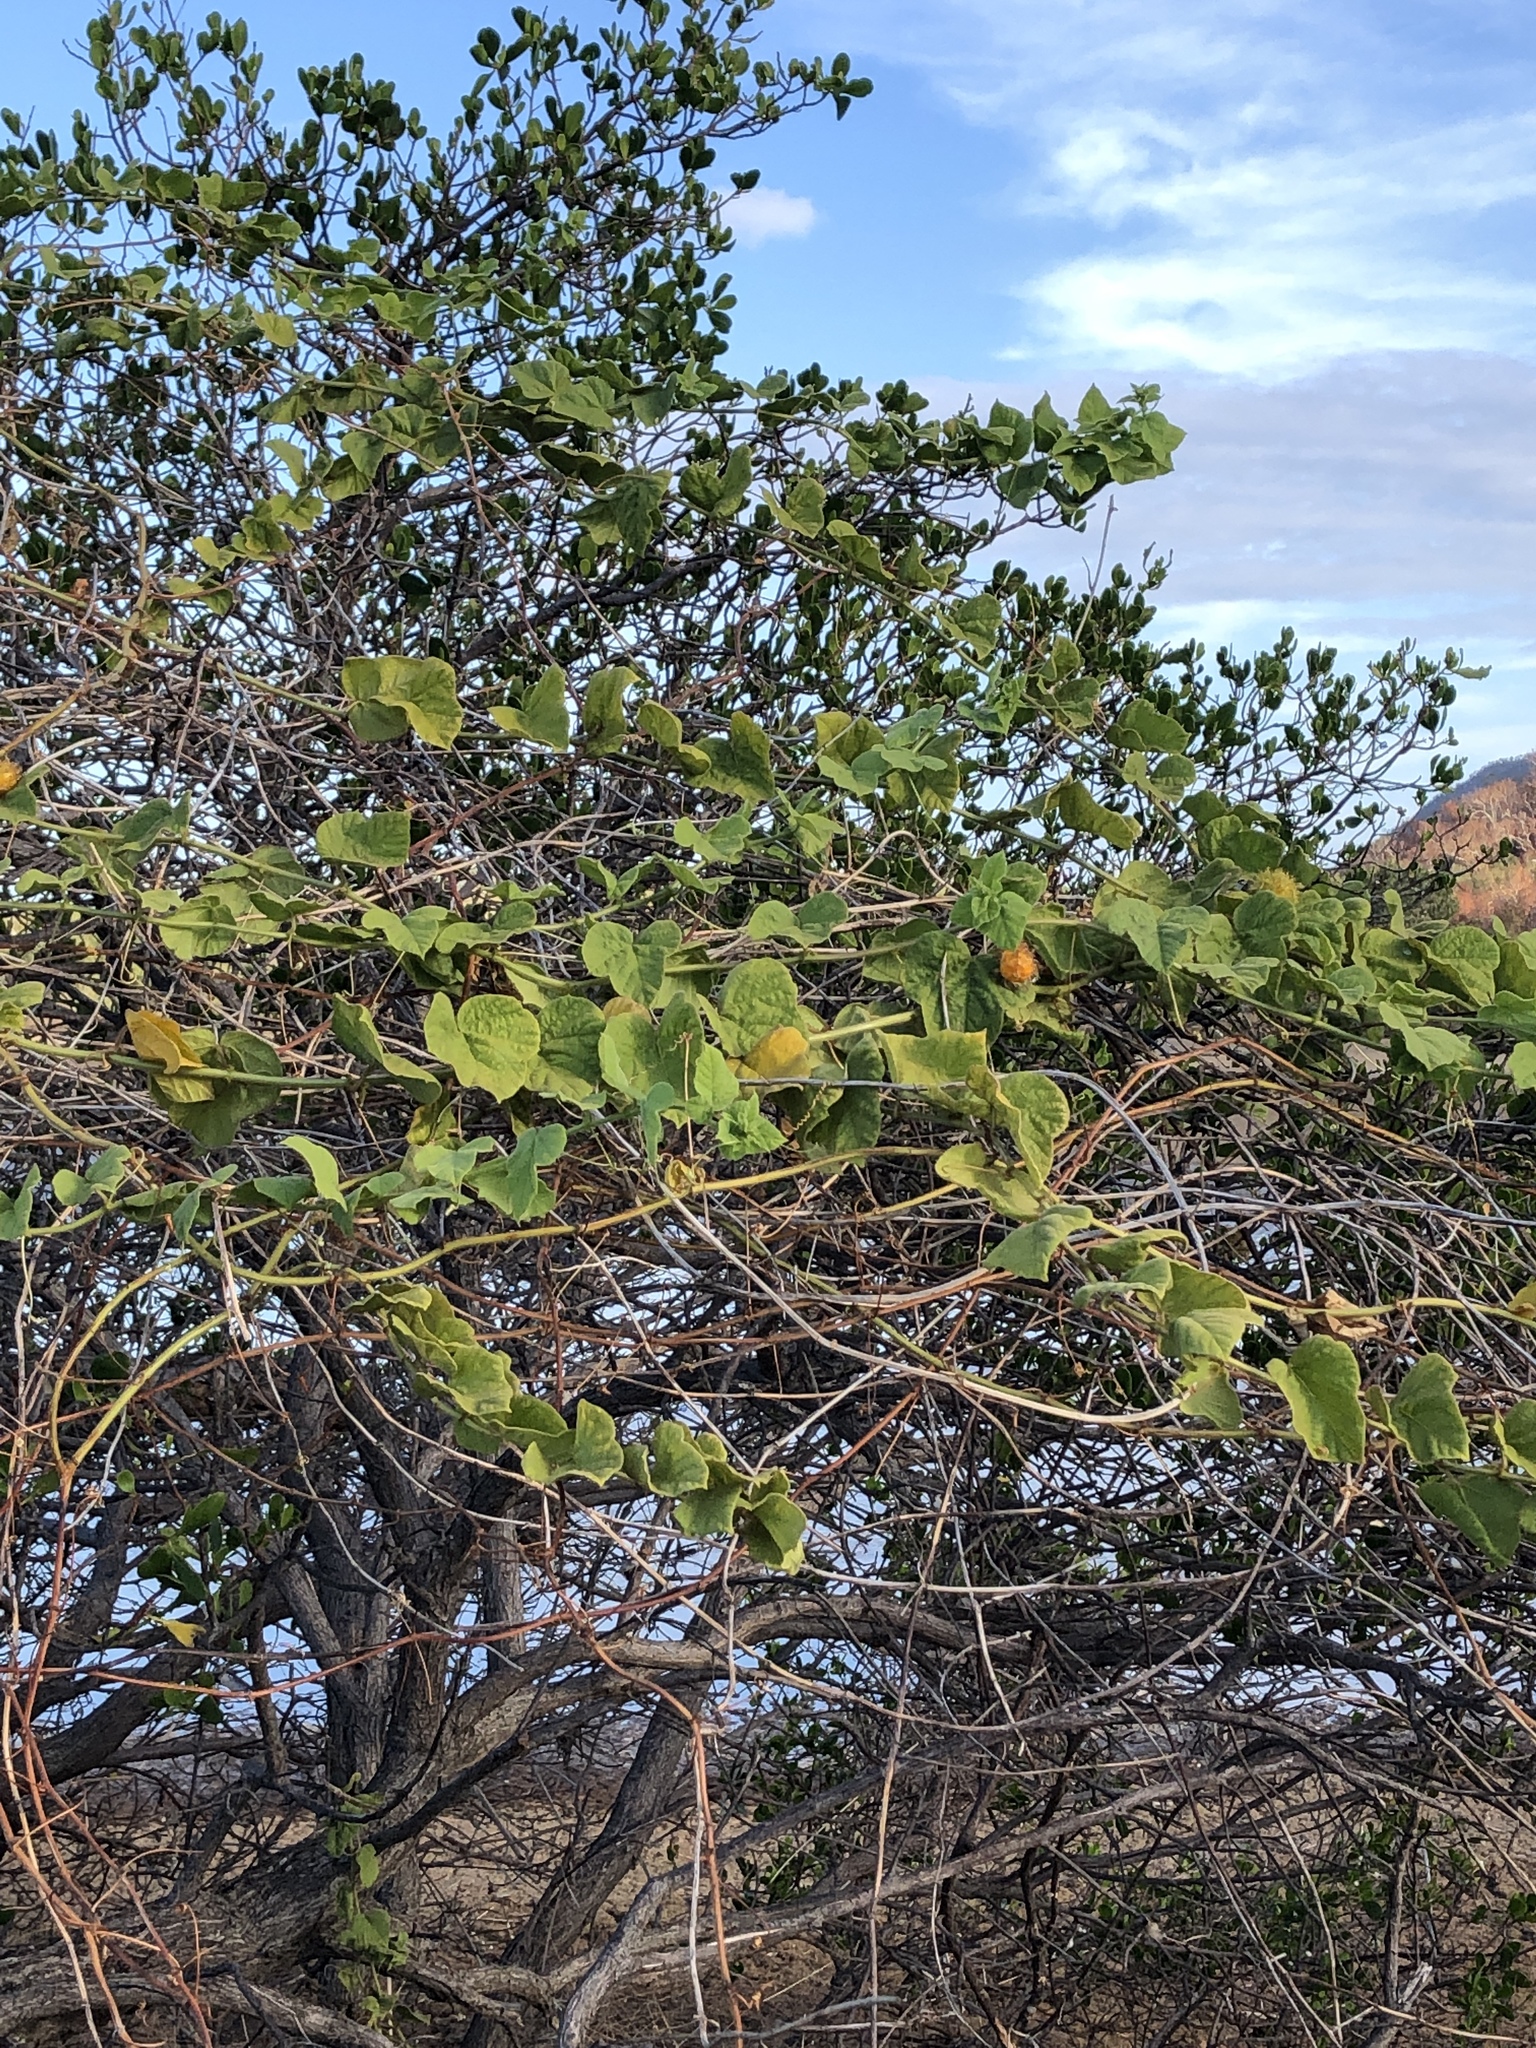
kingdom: Plantae
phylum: Tracheophyta
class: Magnoliopsida
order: Malpighiales
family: Passifloraceae
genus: Passiflora
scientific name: Passiflora foetida
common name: Fetid passionflower
